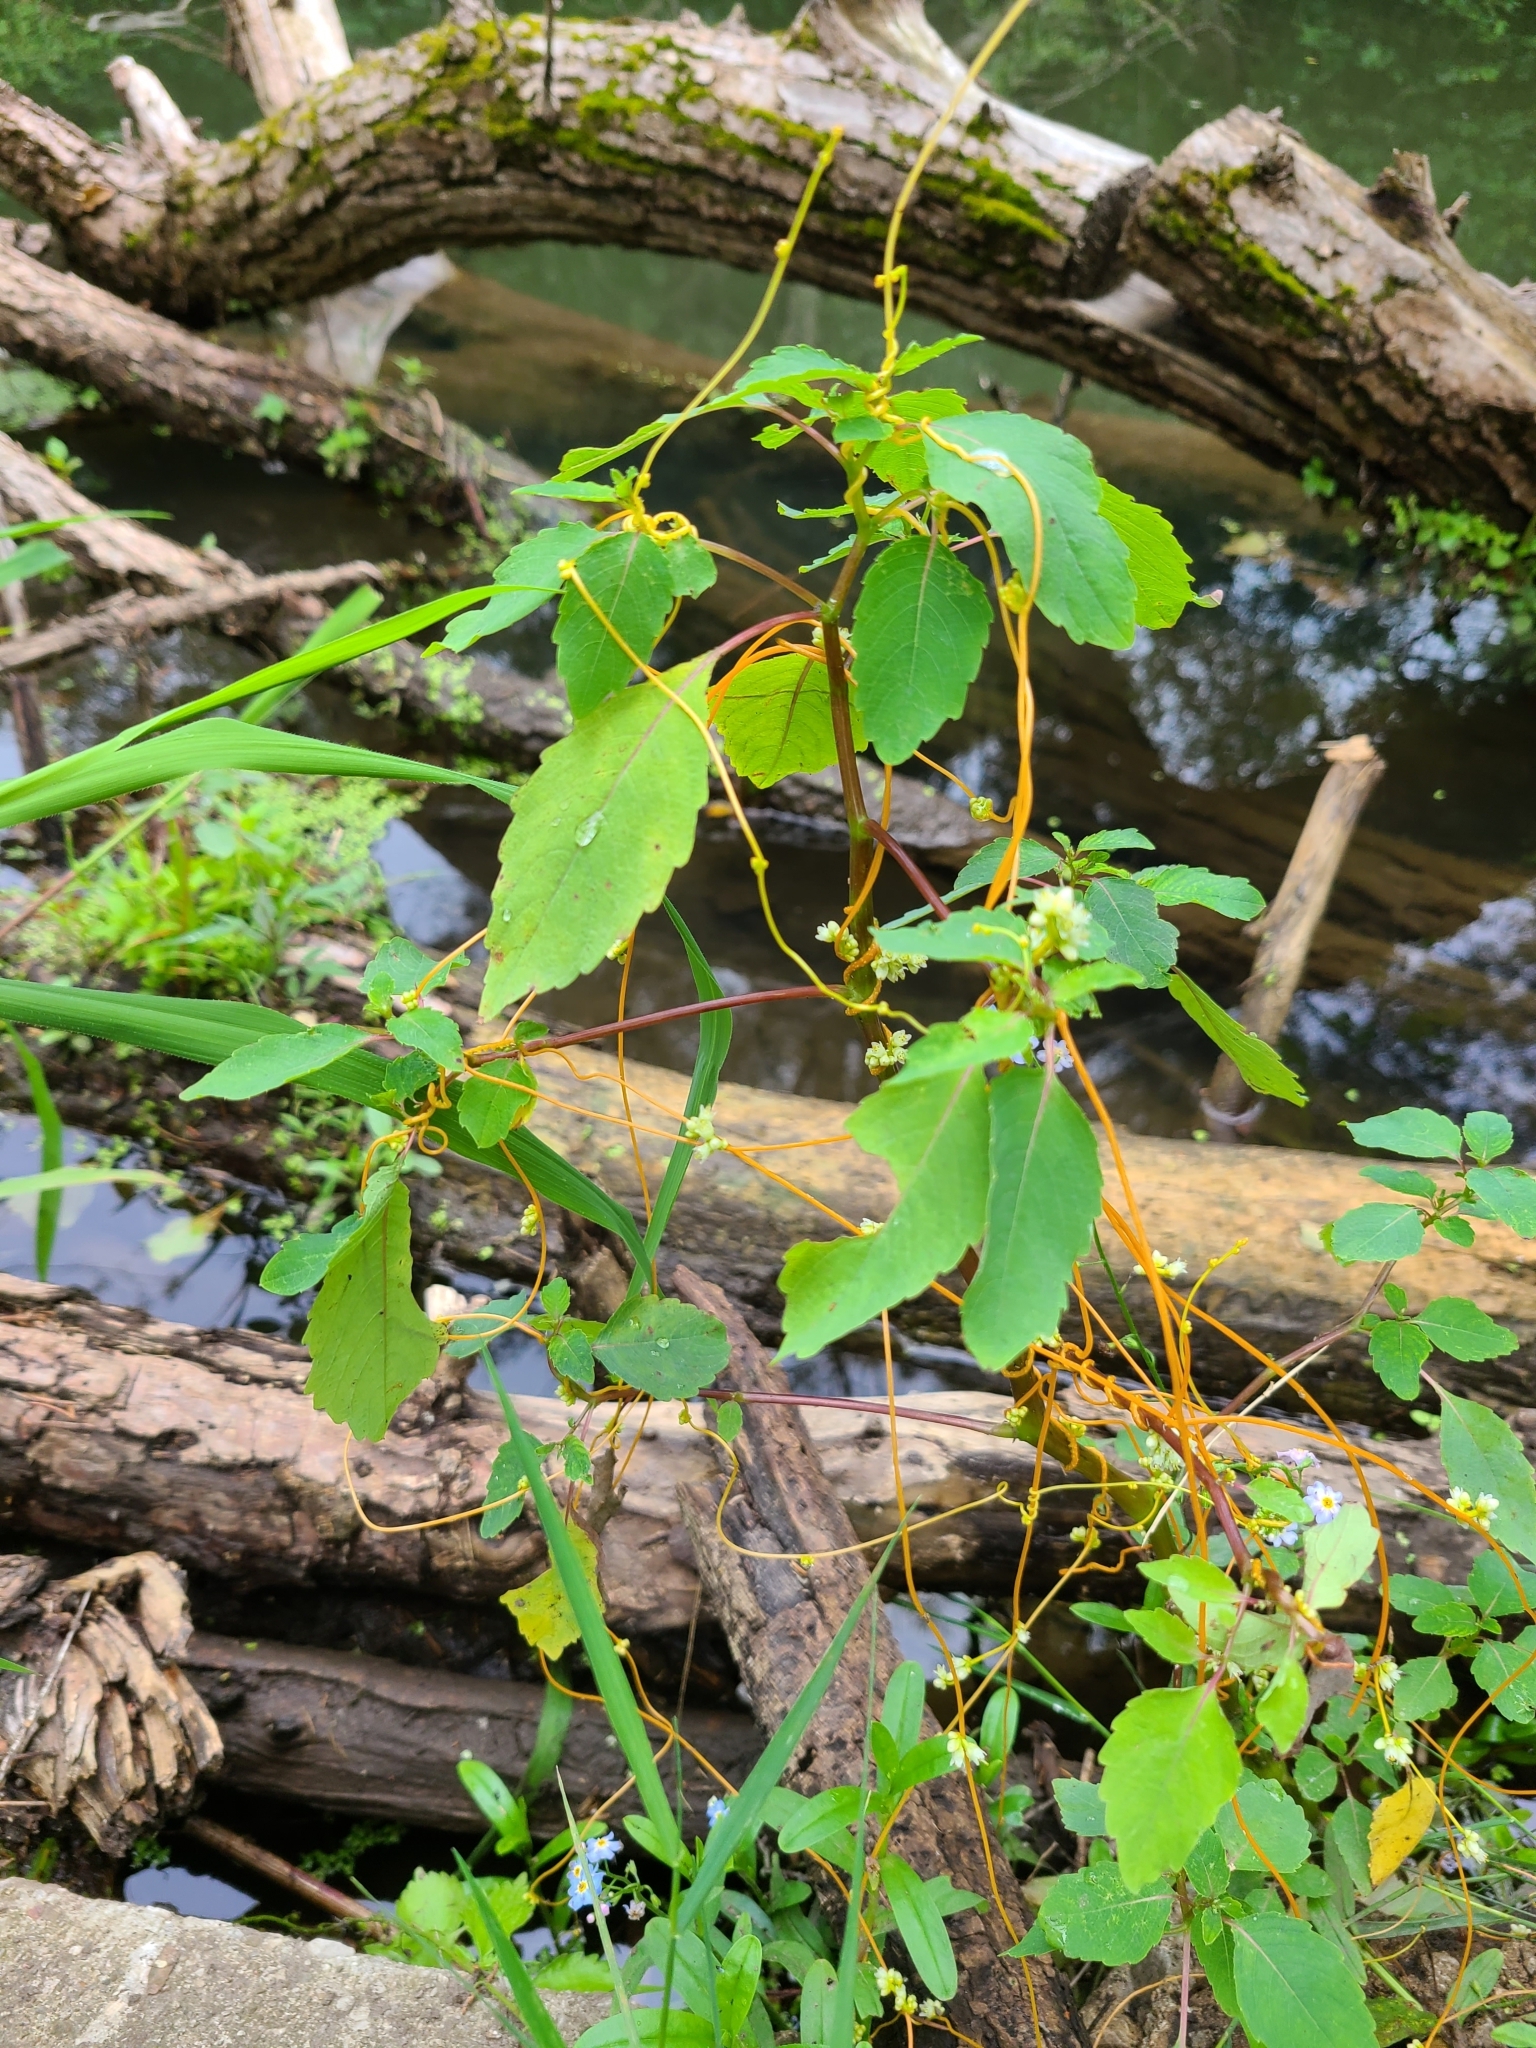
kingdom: Plantae
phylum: Tracheophyta
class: Magnoliopsida
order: Solanales
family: Convolvulaceae
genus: Cuscuta
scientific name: Cuscuta gronovii
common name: Common dodder
